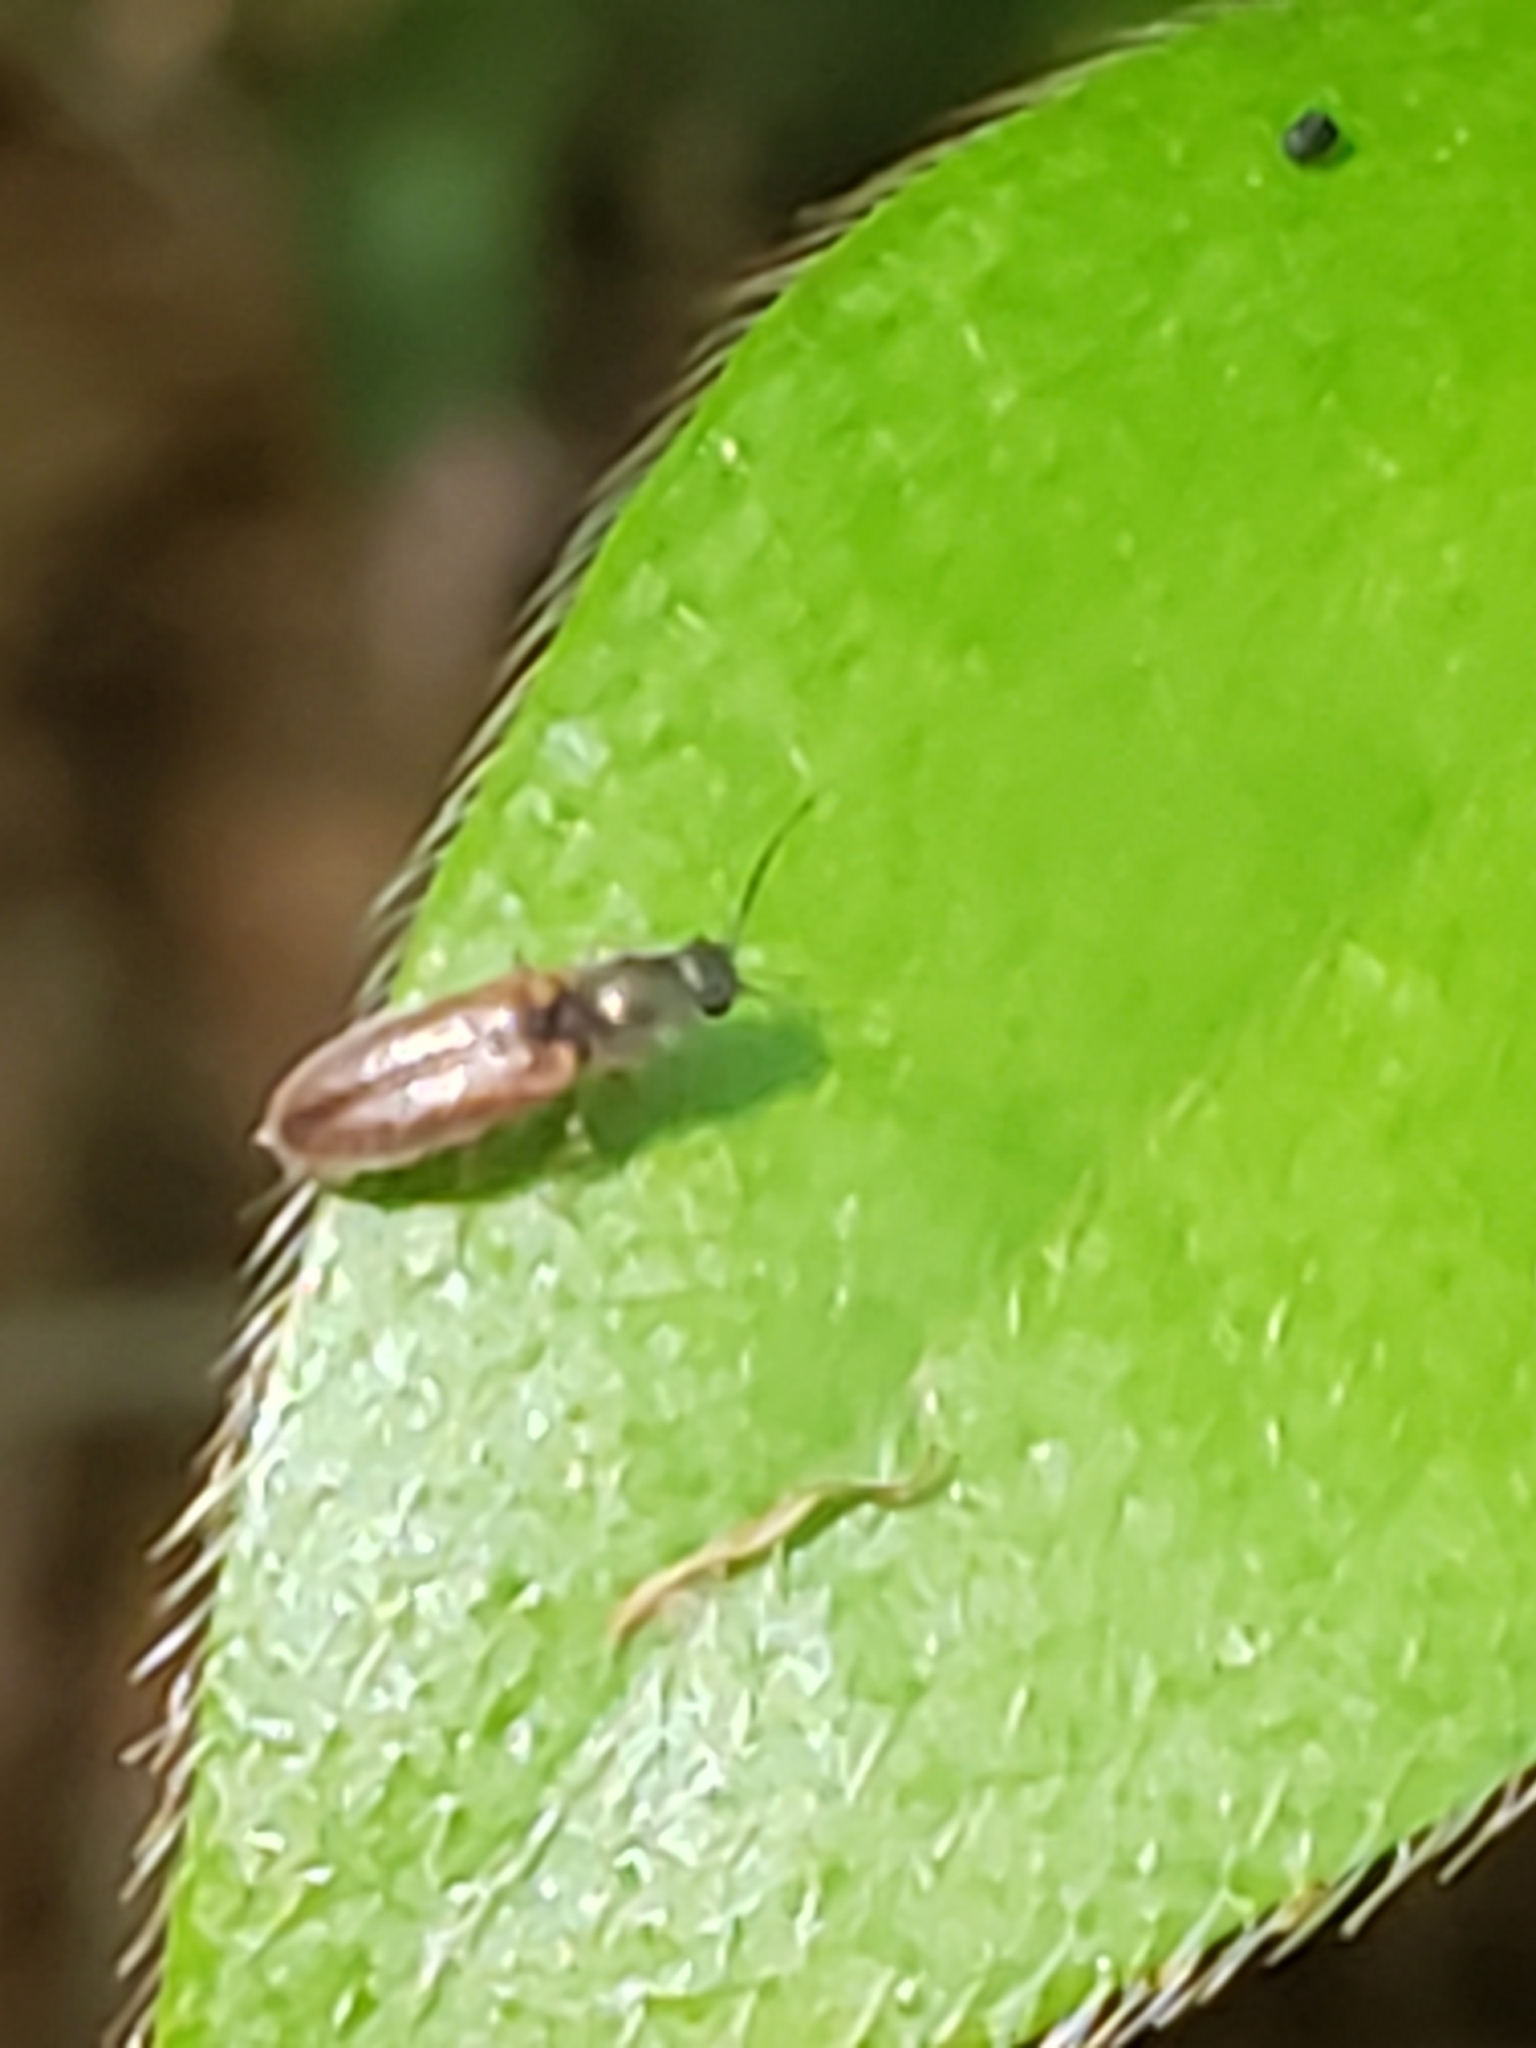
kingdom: Animalia
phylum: Arthropoda
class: Insecta
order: Coleoptera
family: Elateridae
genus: Limonius
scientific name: Limonius
